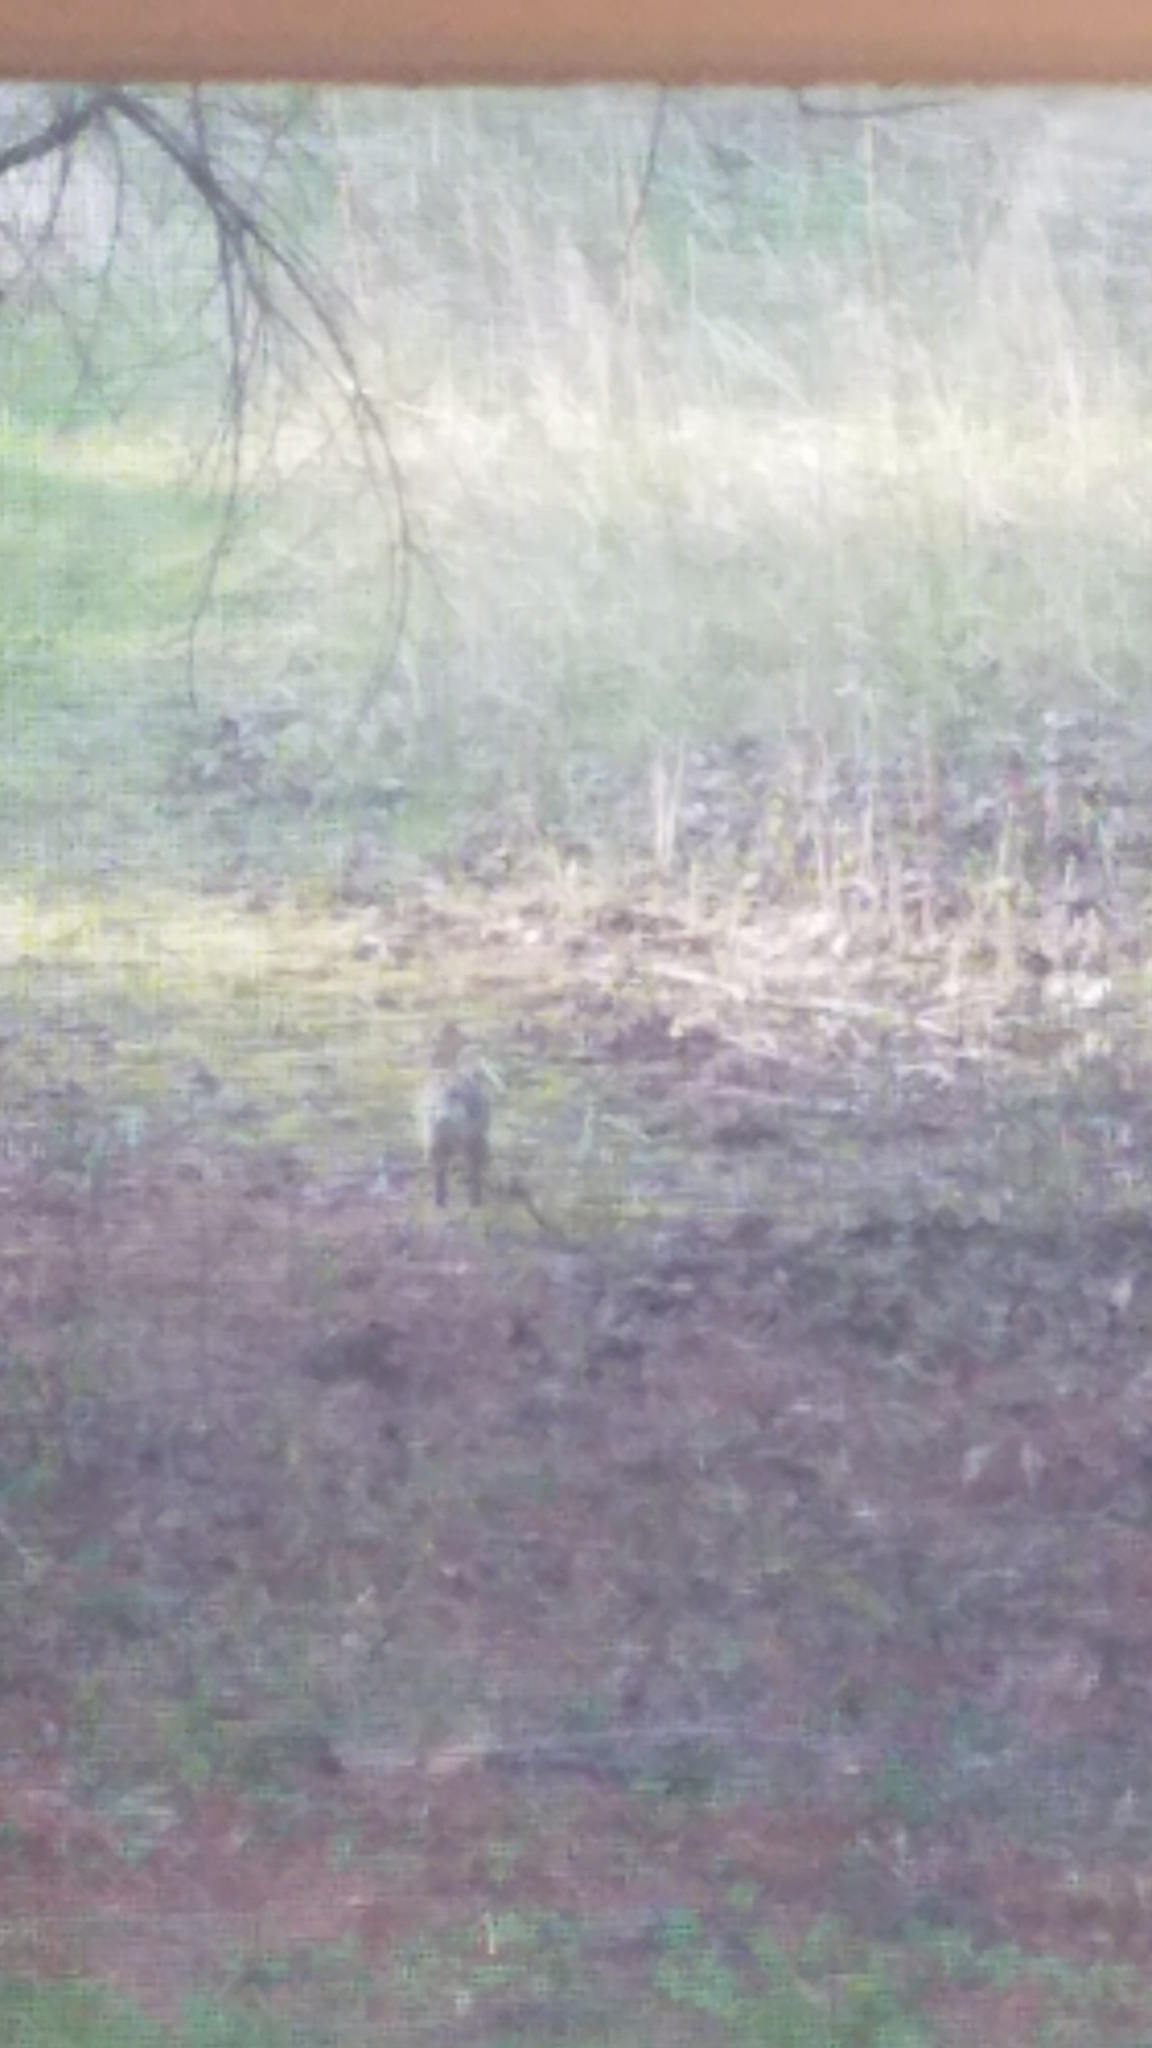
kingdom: Animalia
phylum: Chordata
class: Mammalia
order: Lagomorpha
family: Leporidae
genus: Sylvilagus
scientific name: Sylvilagus floridanus
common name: Eastern cottontail
